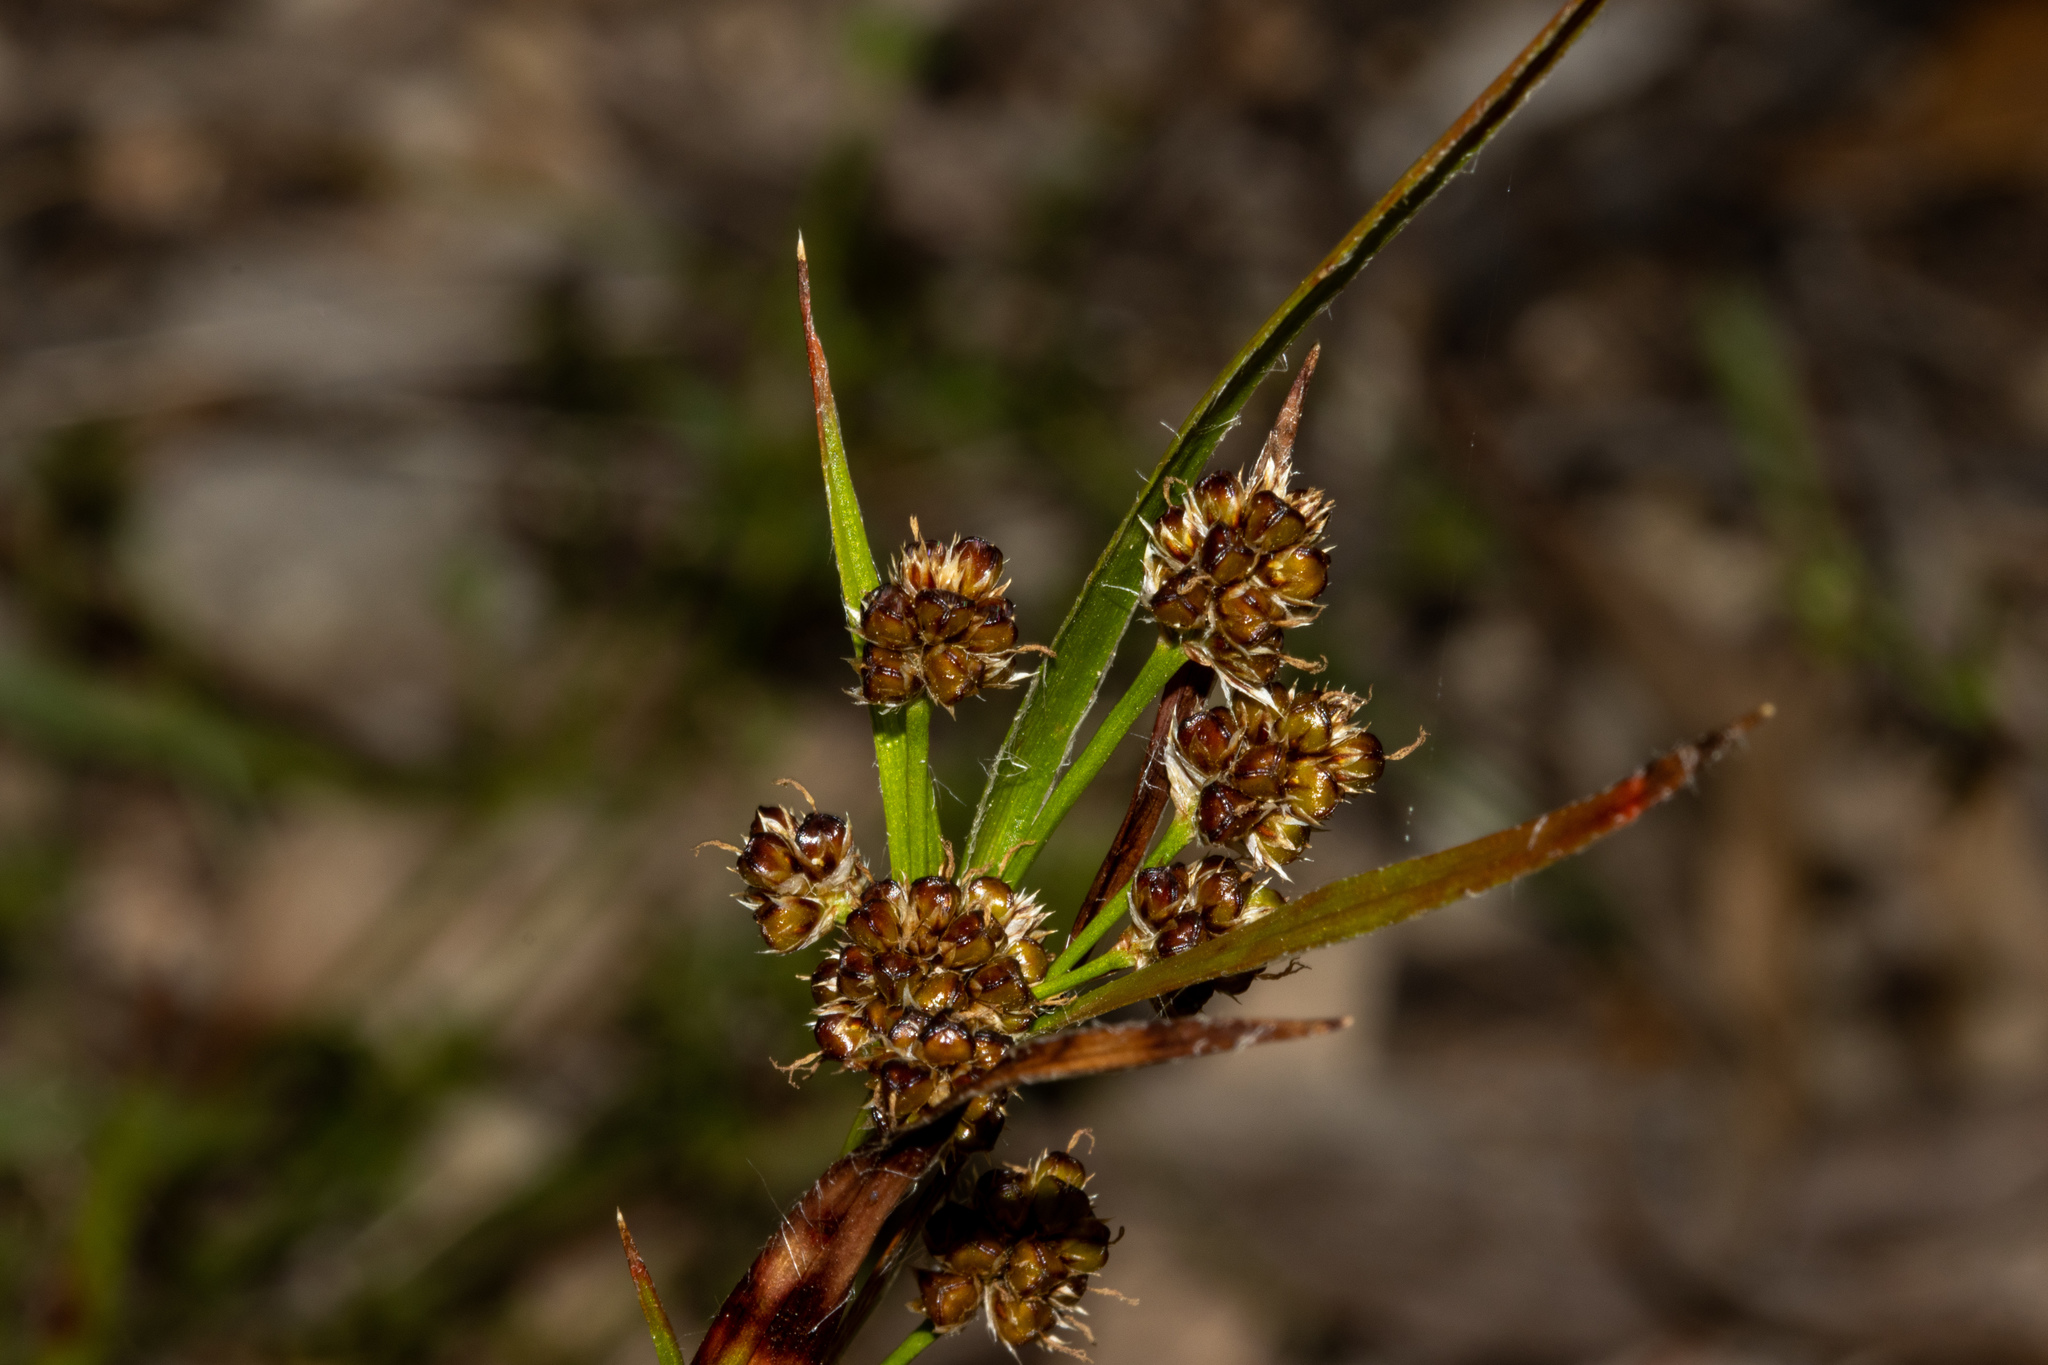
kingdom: Plantae
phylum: Tracheophyta
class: Liliopsida
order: Poales
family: Juncaceae
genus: Luzula
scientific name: Luzula densiflora
